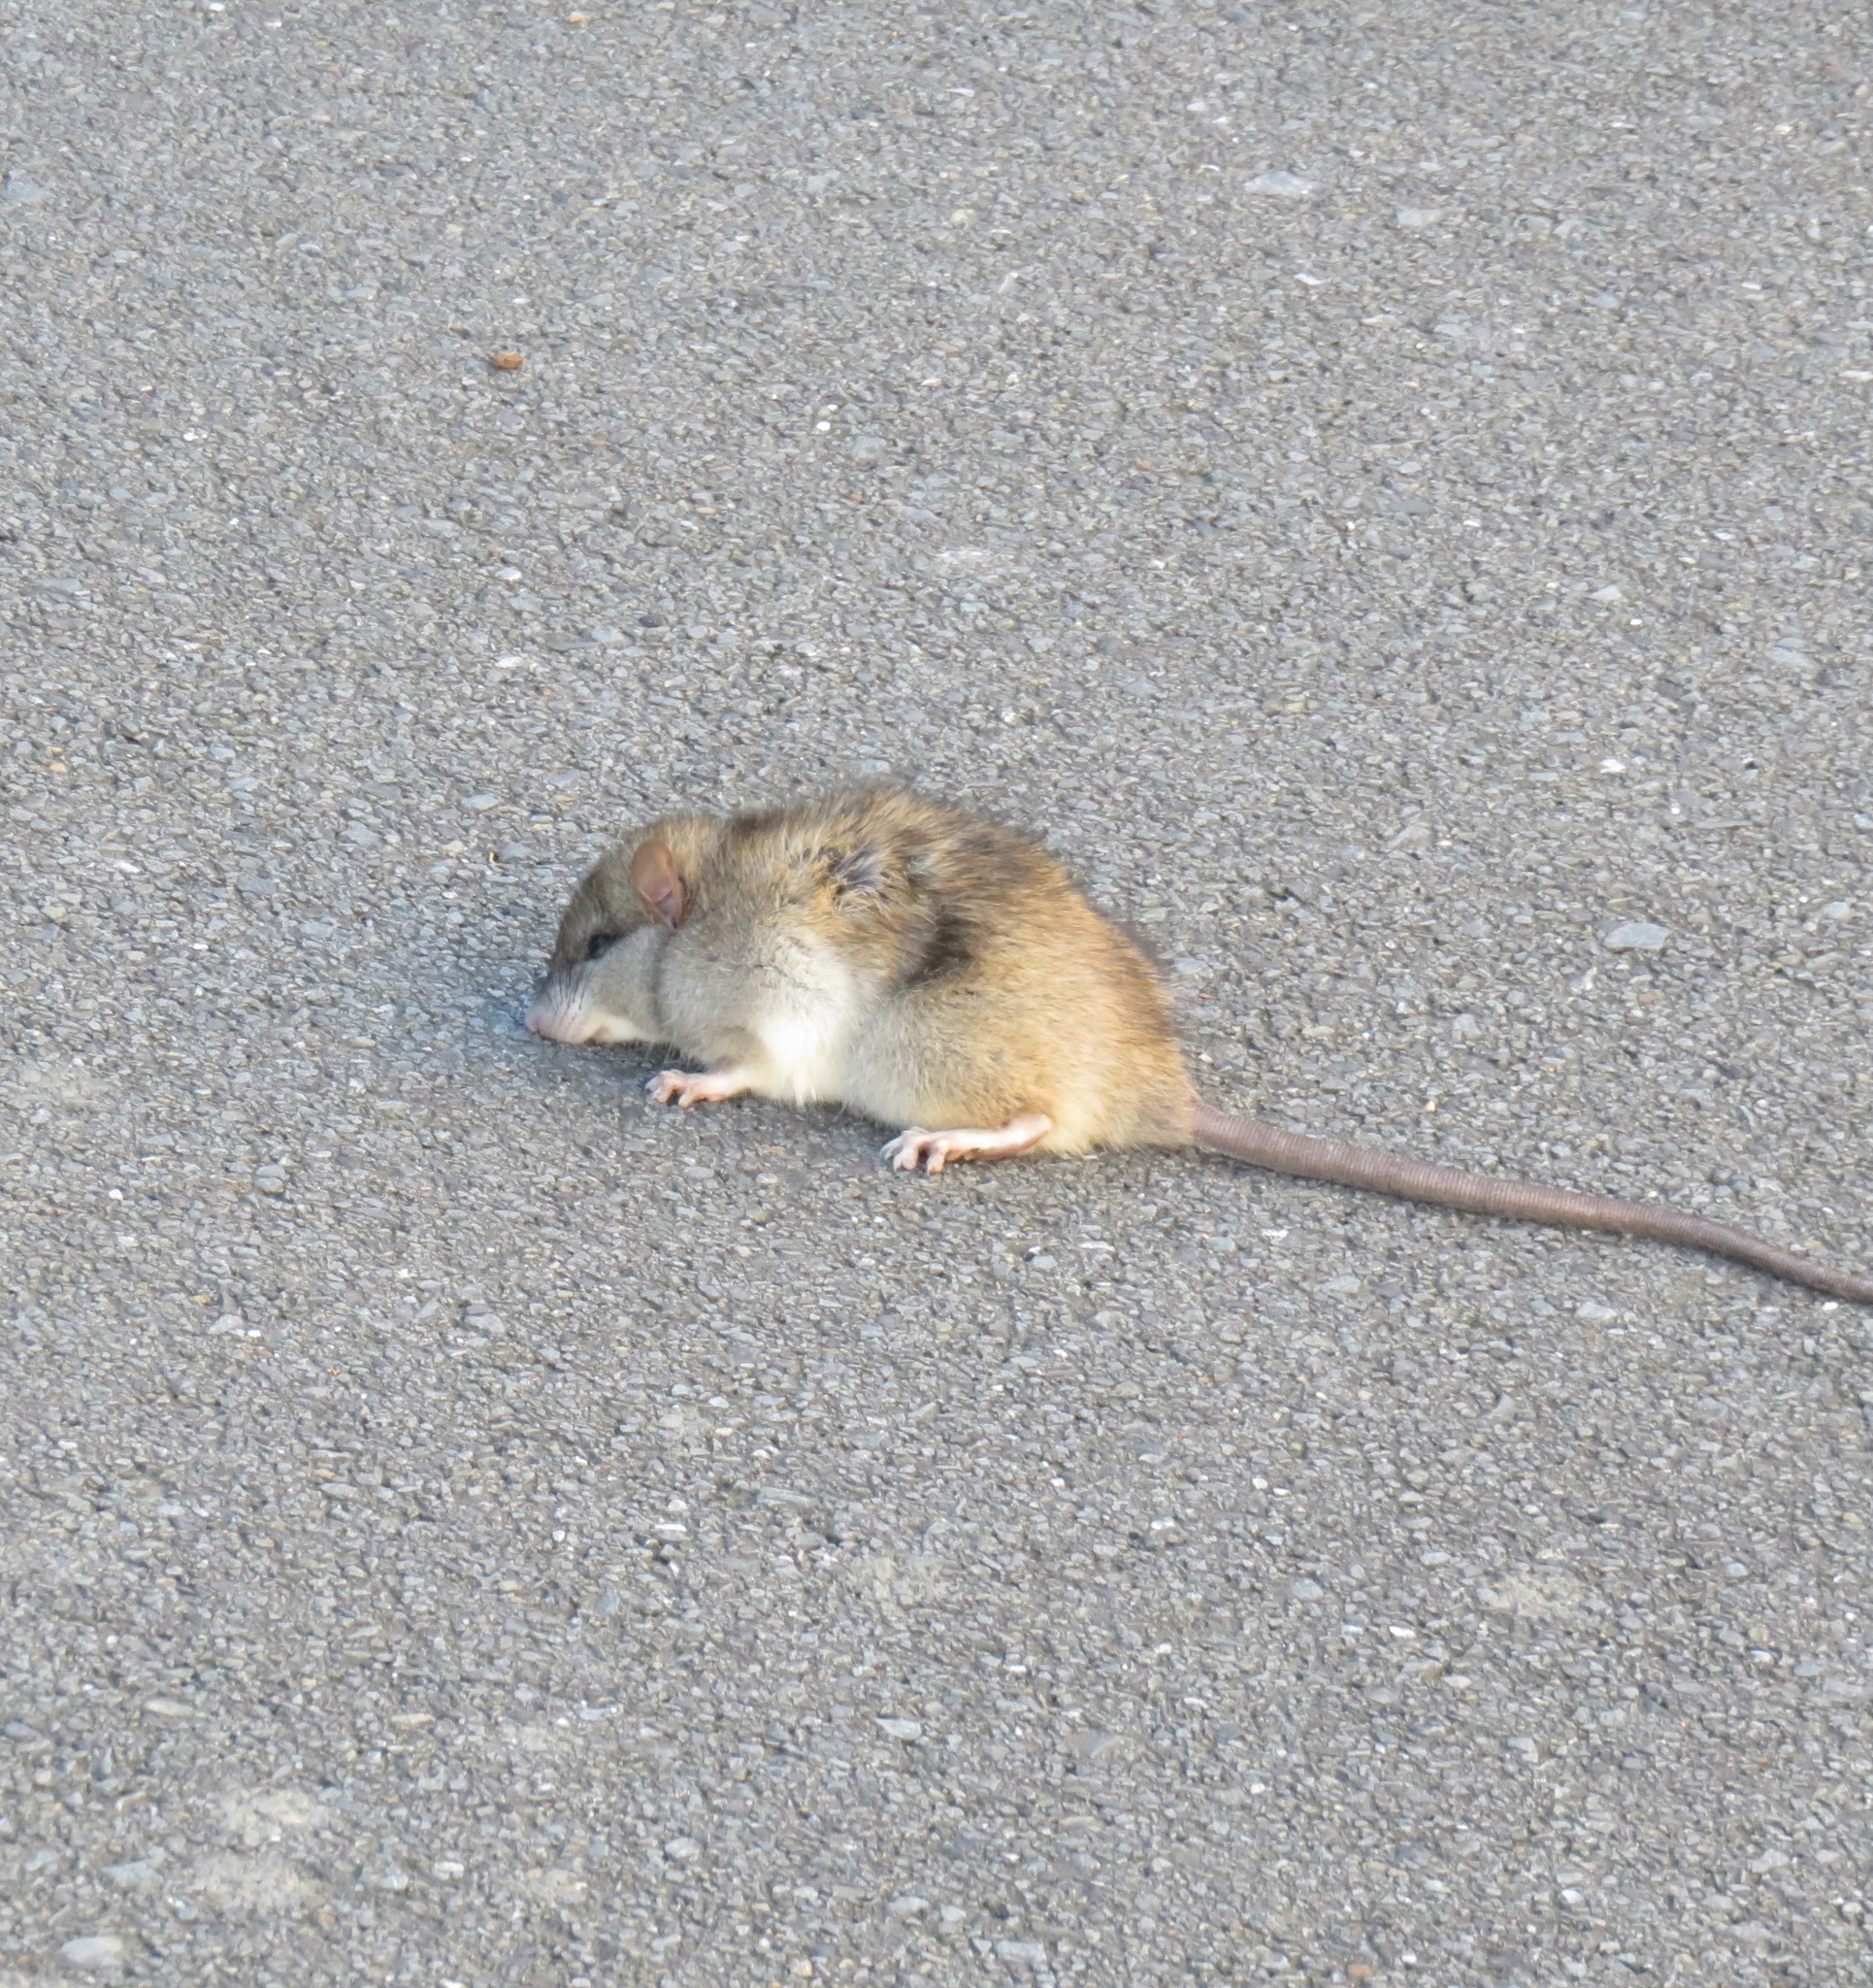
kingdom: Animalia
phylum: Chordata
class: Mammalia
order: Rodentia
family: Muridae
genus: Rattus
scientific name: Rattus rattus
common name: Black rat
